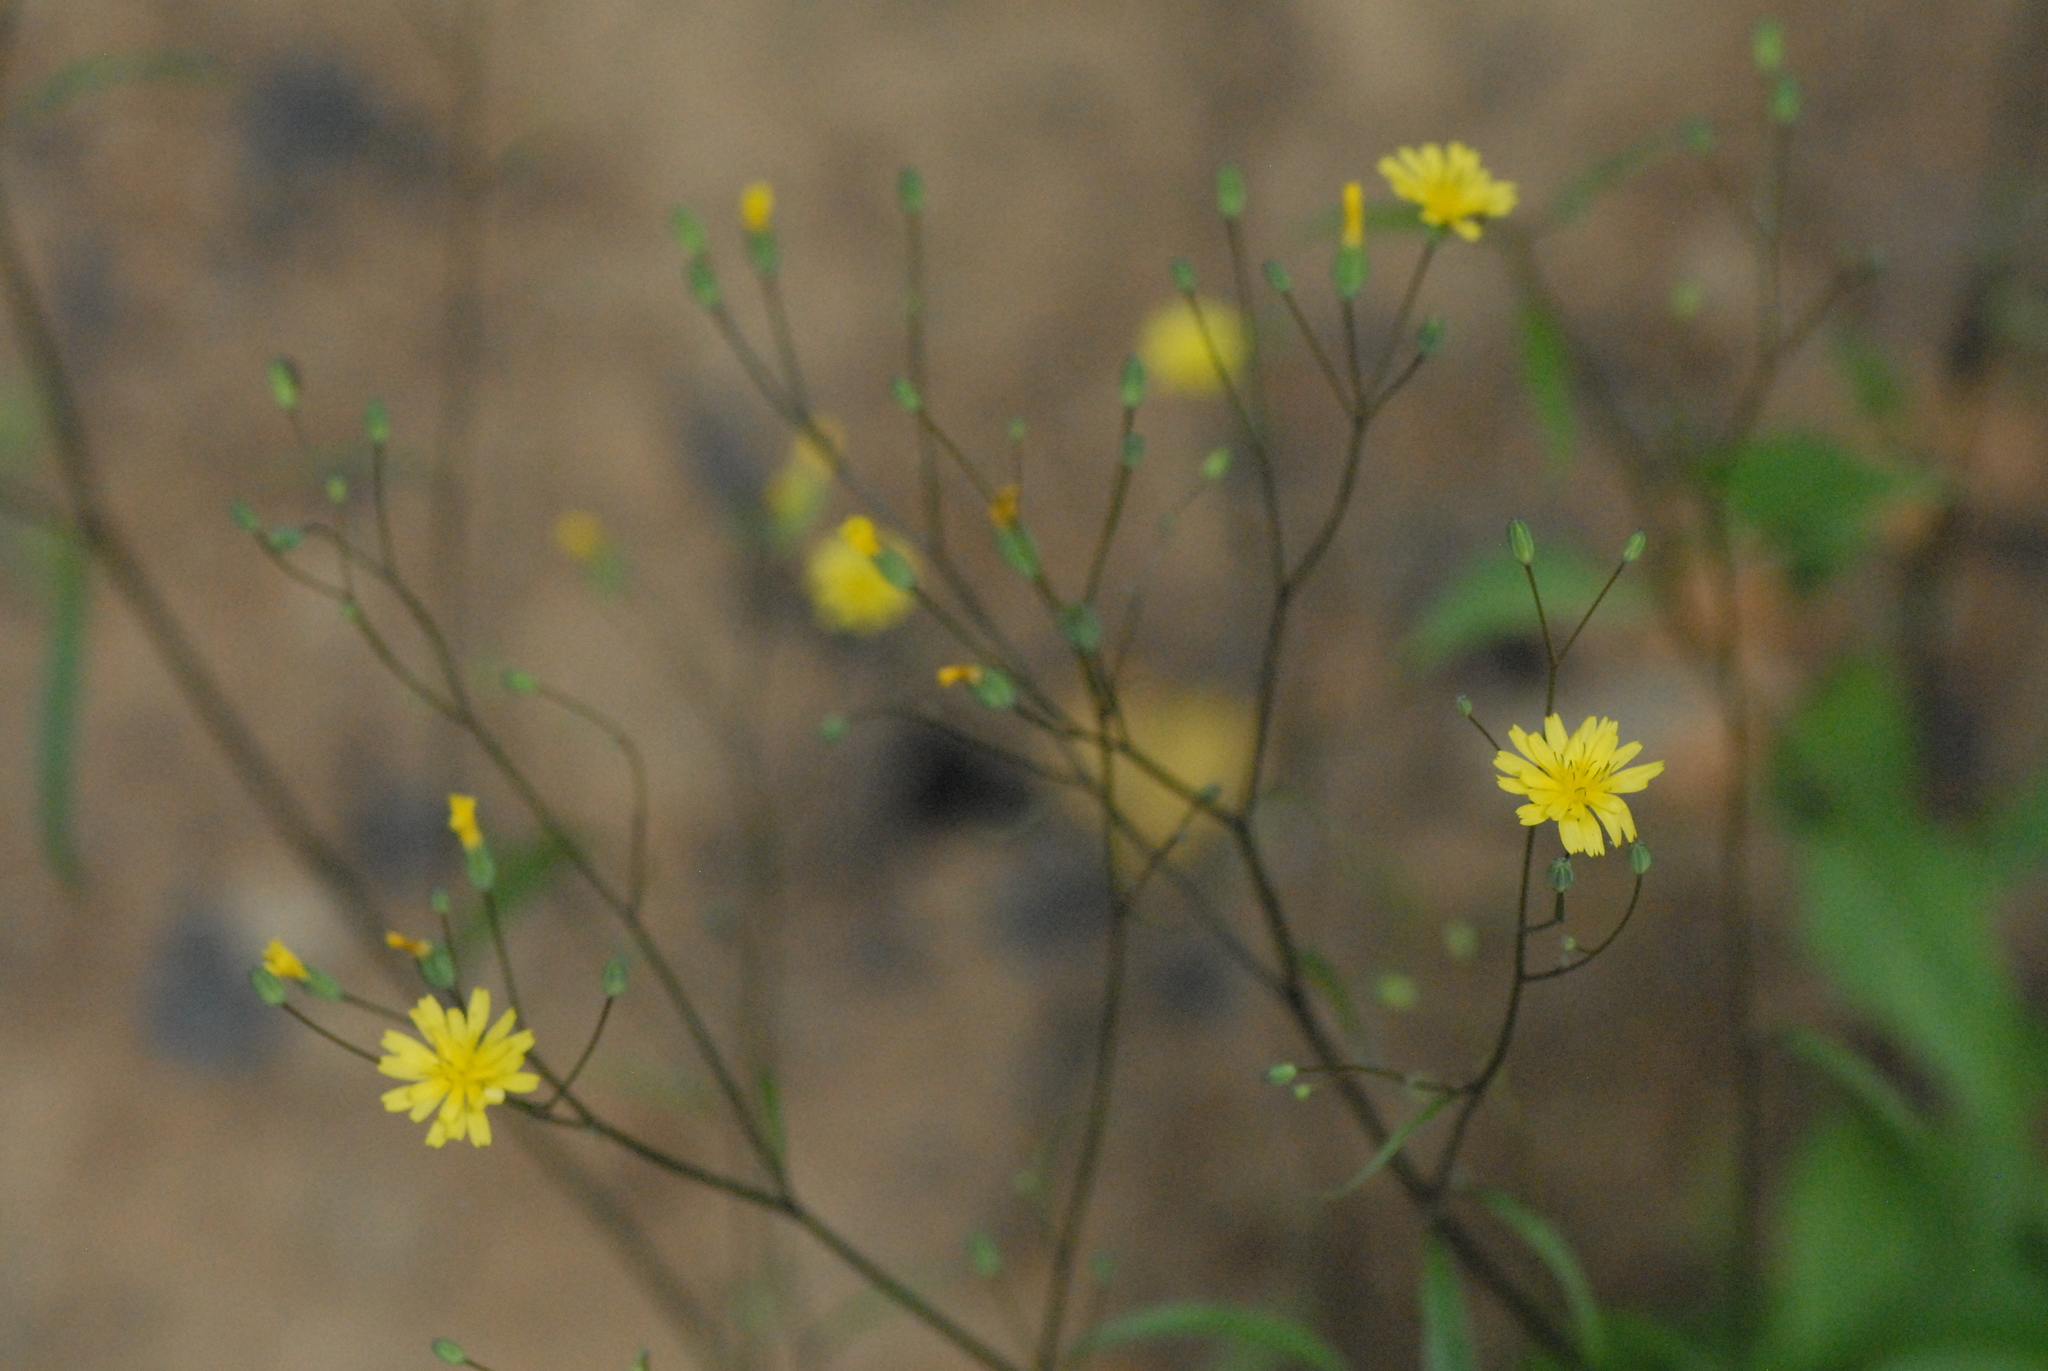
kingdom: Plantae
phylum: Tracheophyta
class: Magnoliopsida
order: Asterales
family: Asteraceae
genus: Lapsana
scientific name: Lapsana communis
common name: Nipplewort
